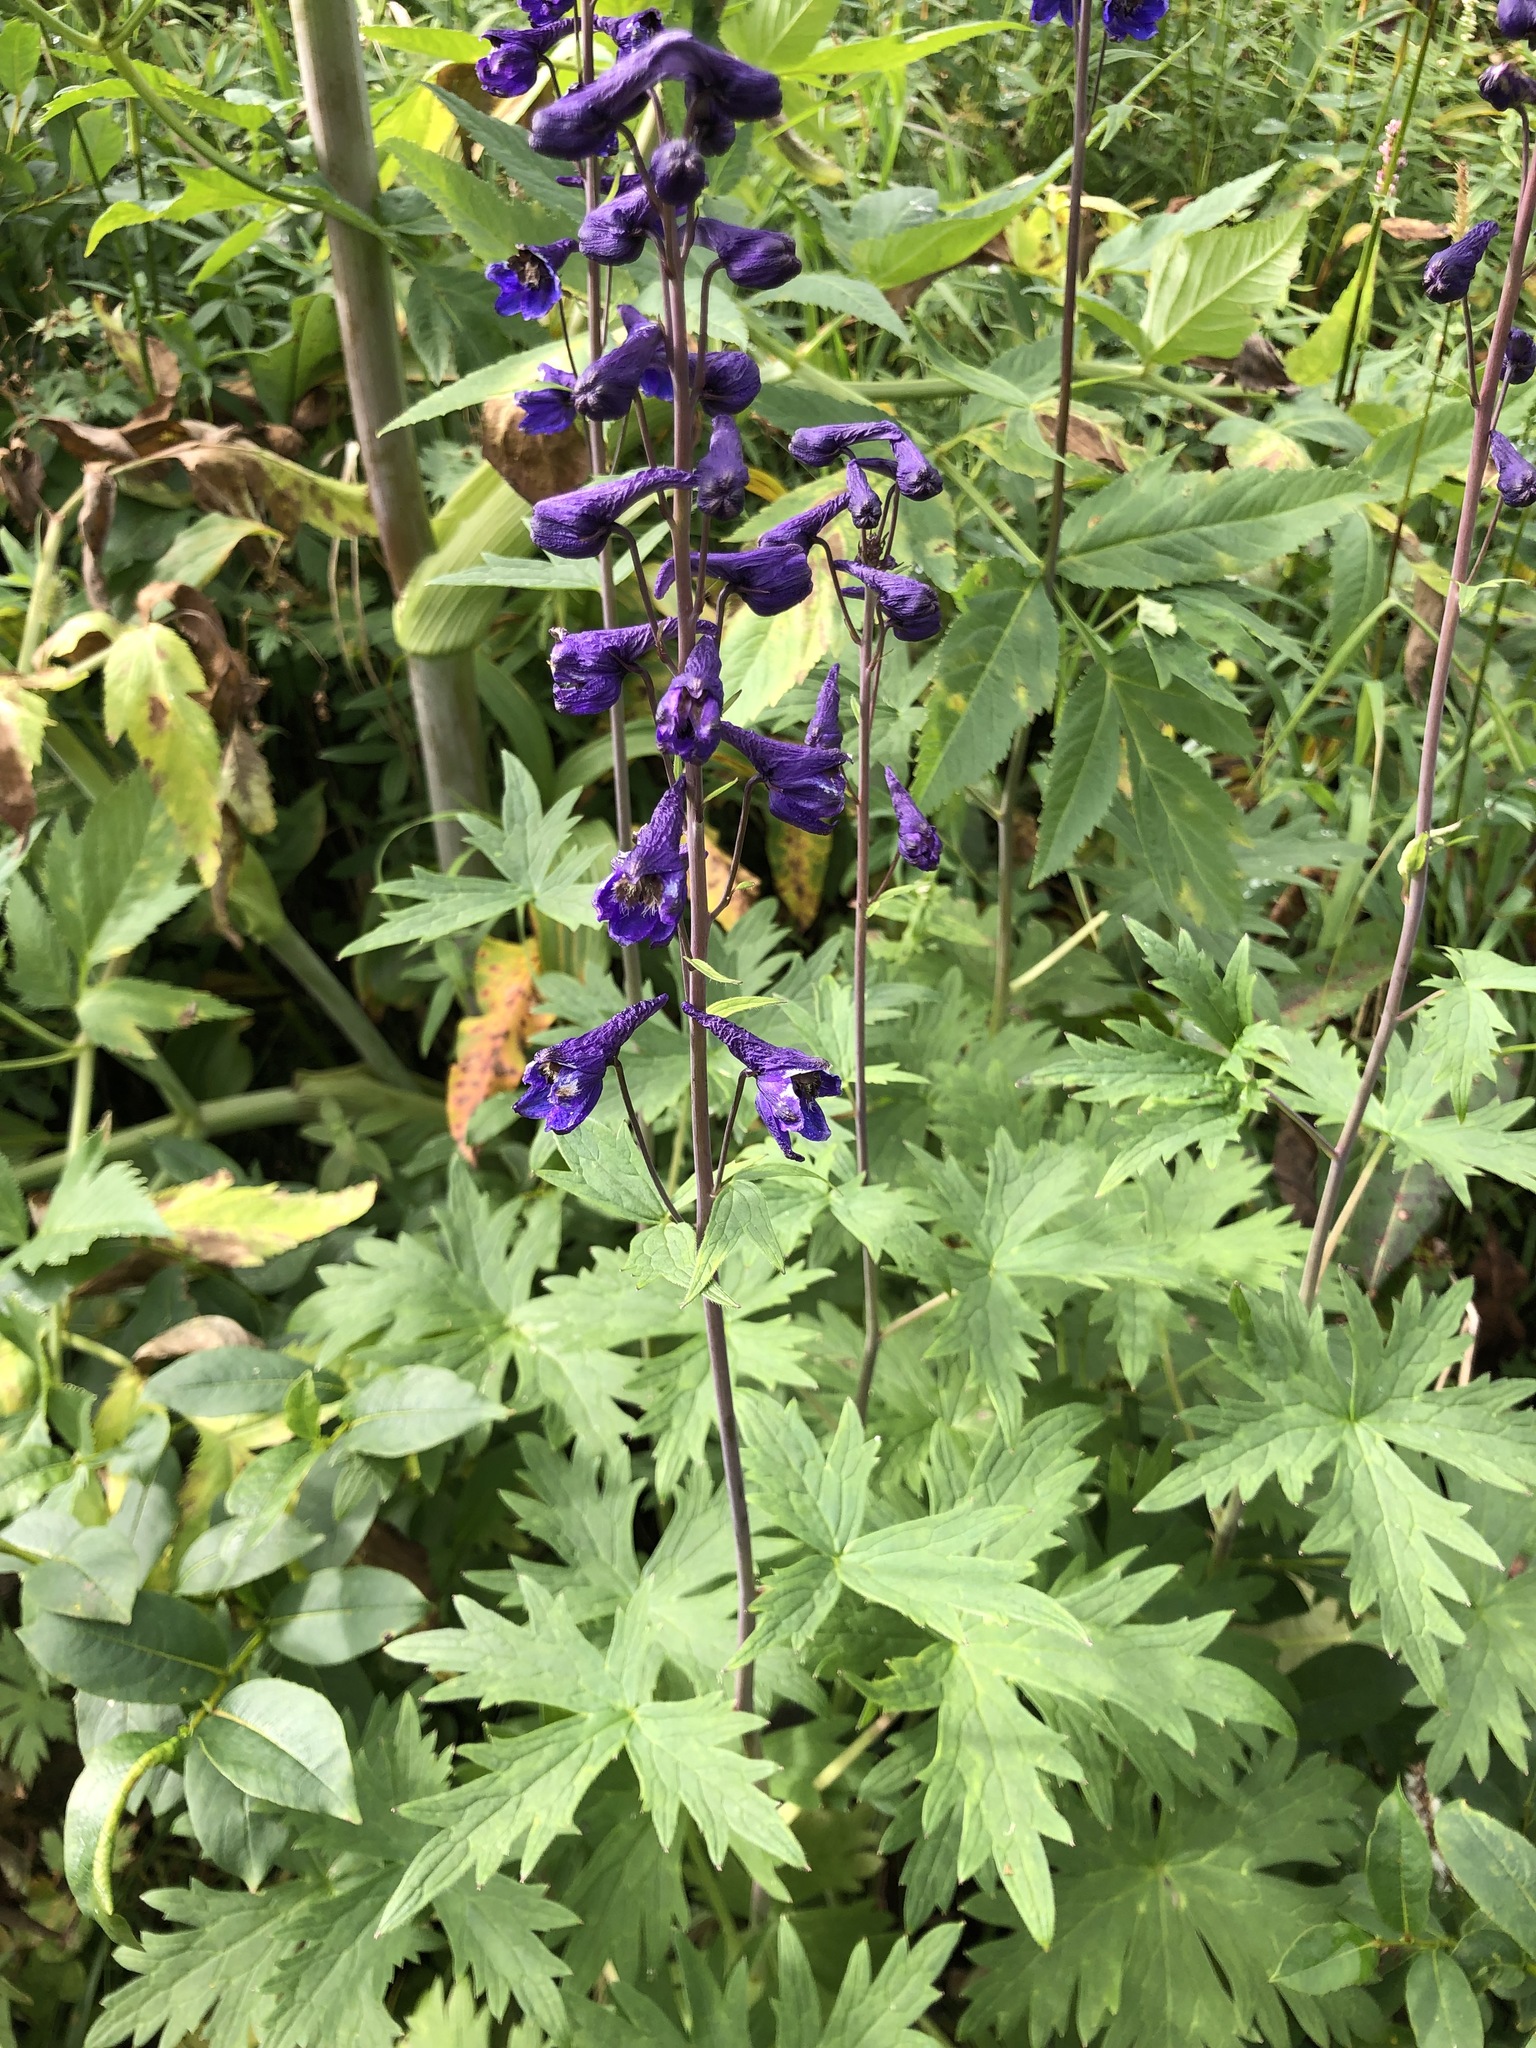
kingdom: Plantae
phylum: Tracheophyta
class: Magnoliopsida
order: Ranunculales
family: Ranunculaceae
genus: Delphinium
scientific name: Delphinium elatum
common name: Candle larkspur
